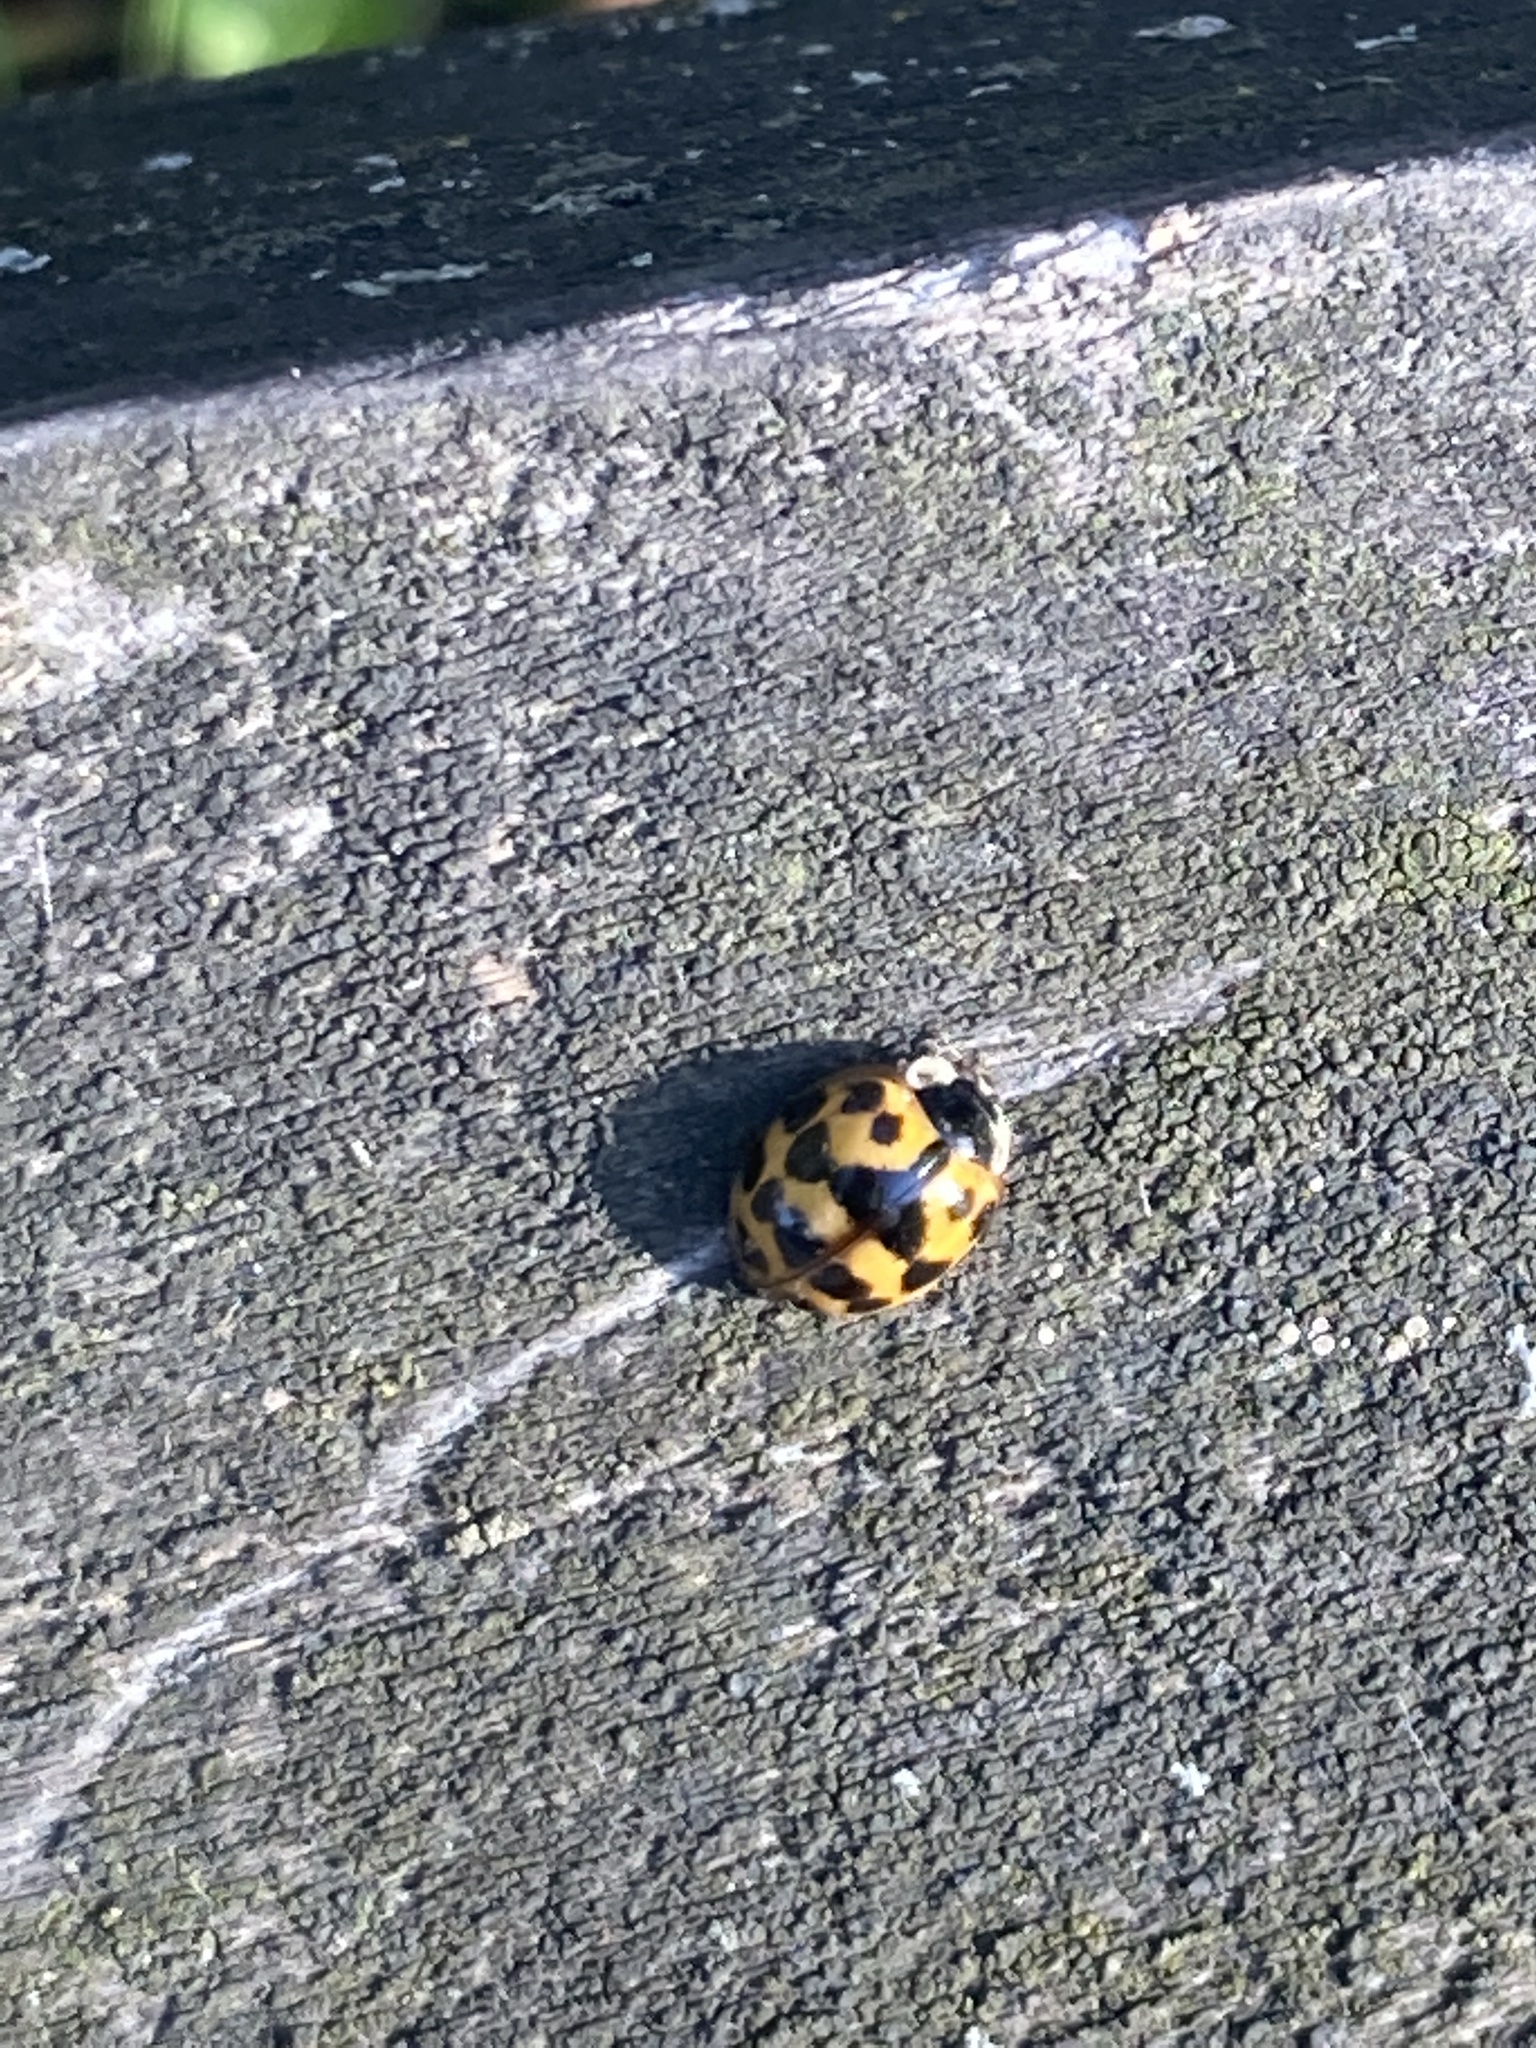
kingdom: Animalia
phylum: Arthropoda
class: Insecta
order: Coleoptera
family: Coccinellidae
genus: Harmonia
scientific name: Harmonia axyridis
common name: Harlequin ladybird
